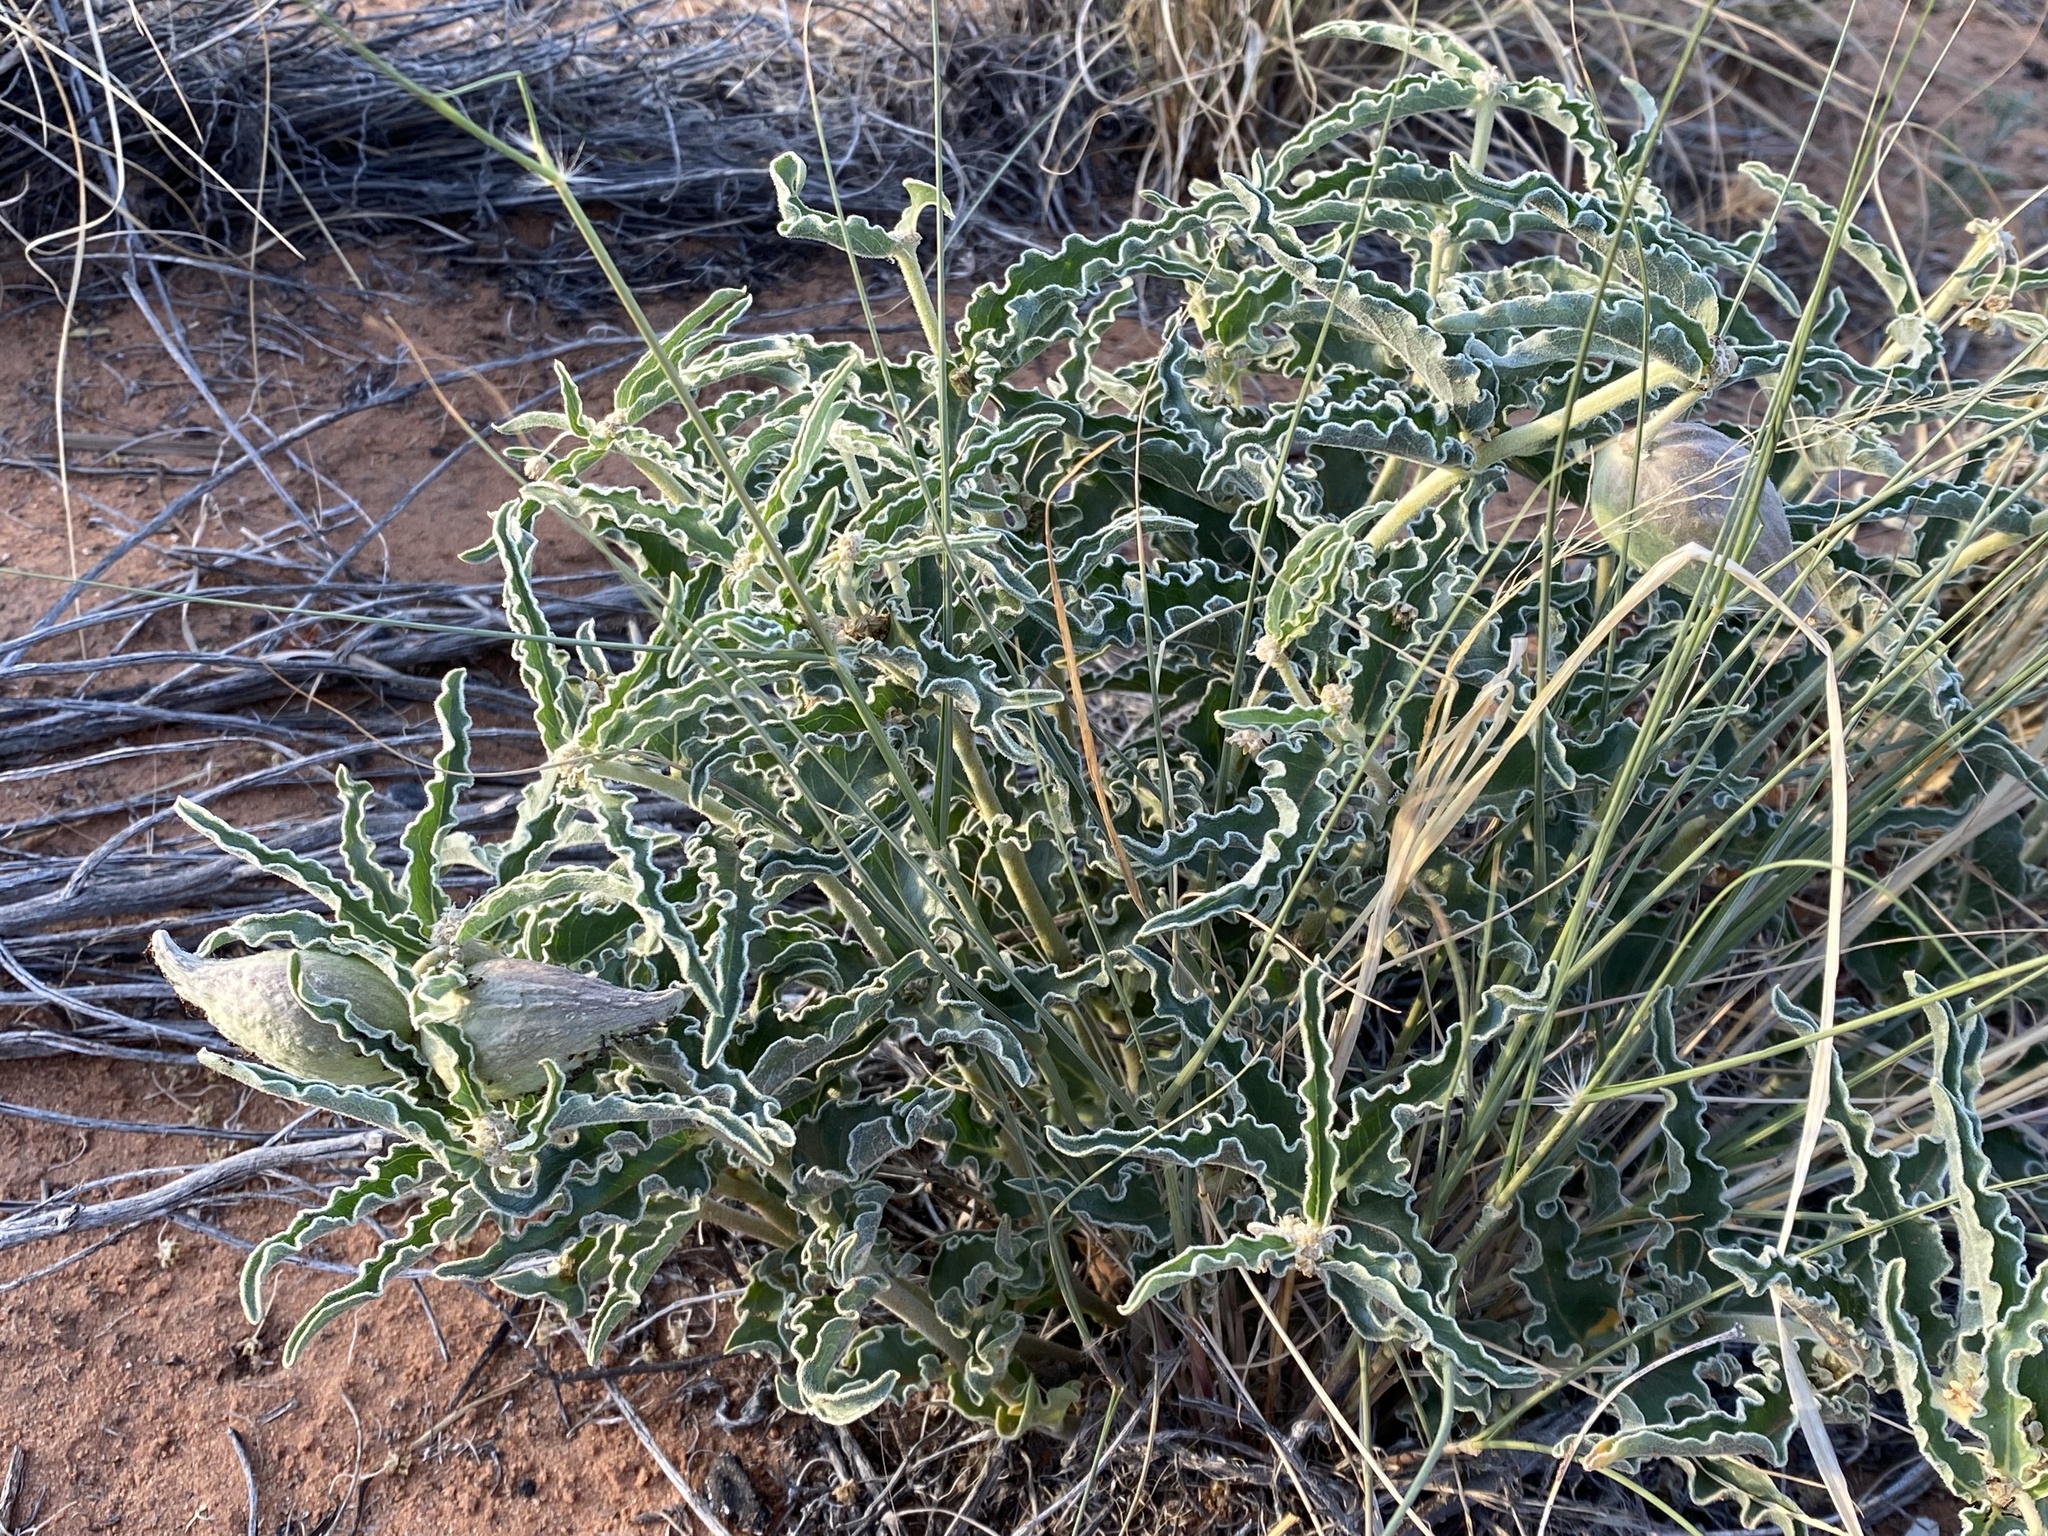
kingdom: Plantae
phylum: Tracheophyta
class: Magnoliopsida
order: Gentianales
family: Apocynaceae
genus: Asclepias
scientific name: Asclepias involucrata
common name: Dwarf milkweed
